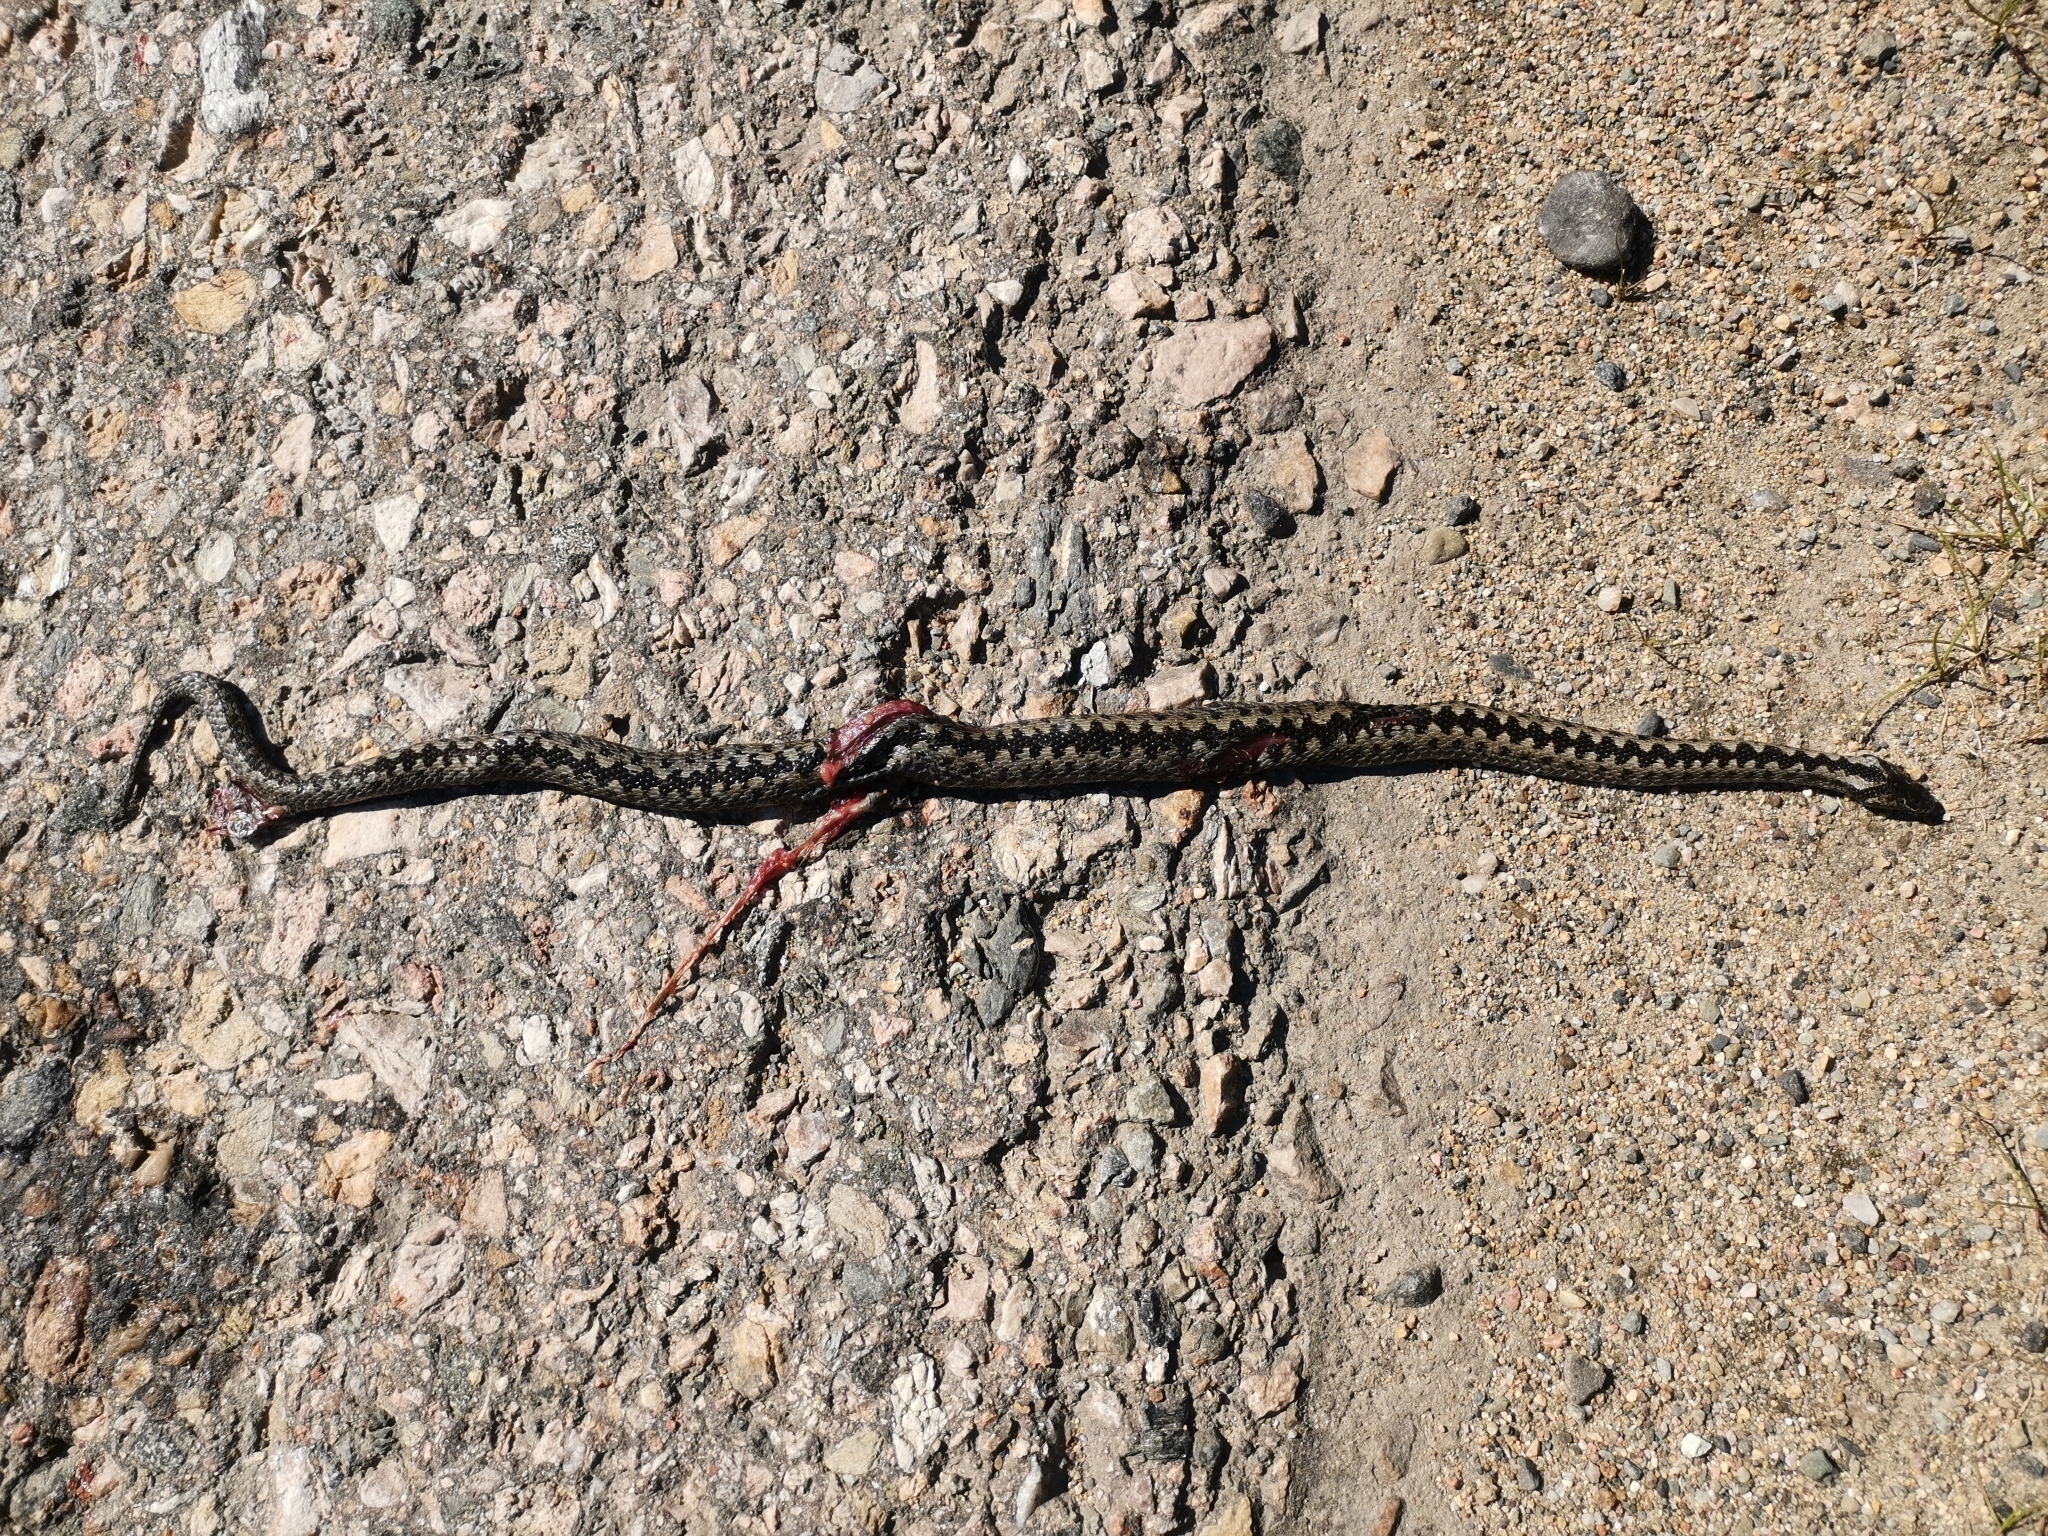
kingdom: Animalia
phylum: Chordata
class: Squamata
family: Viperidae
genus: Vipera
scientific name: Vipera berus
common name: Adder
